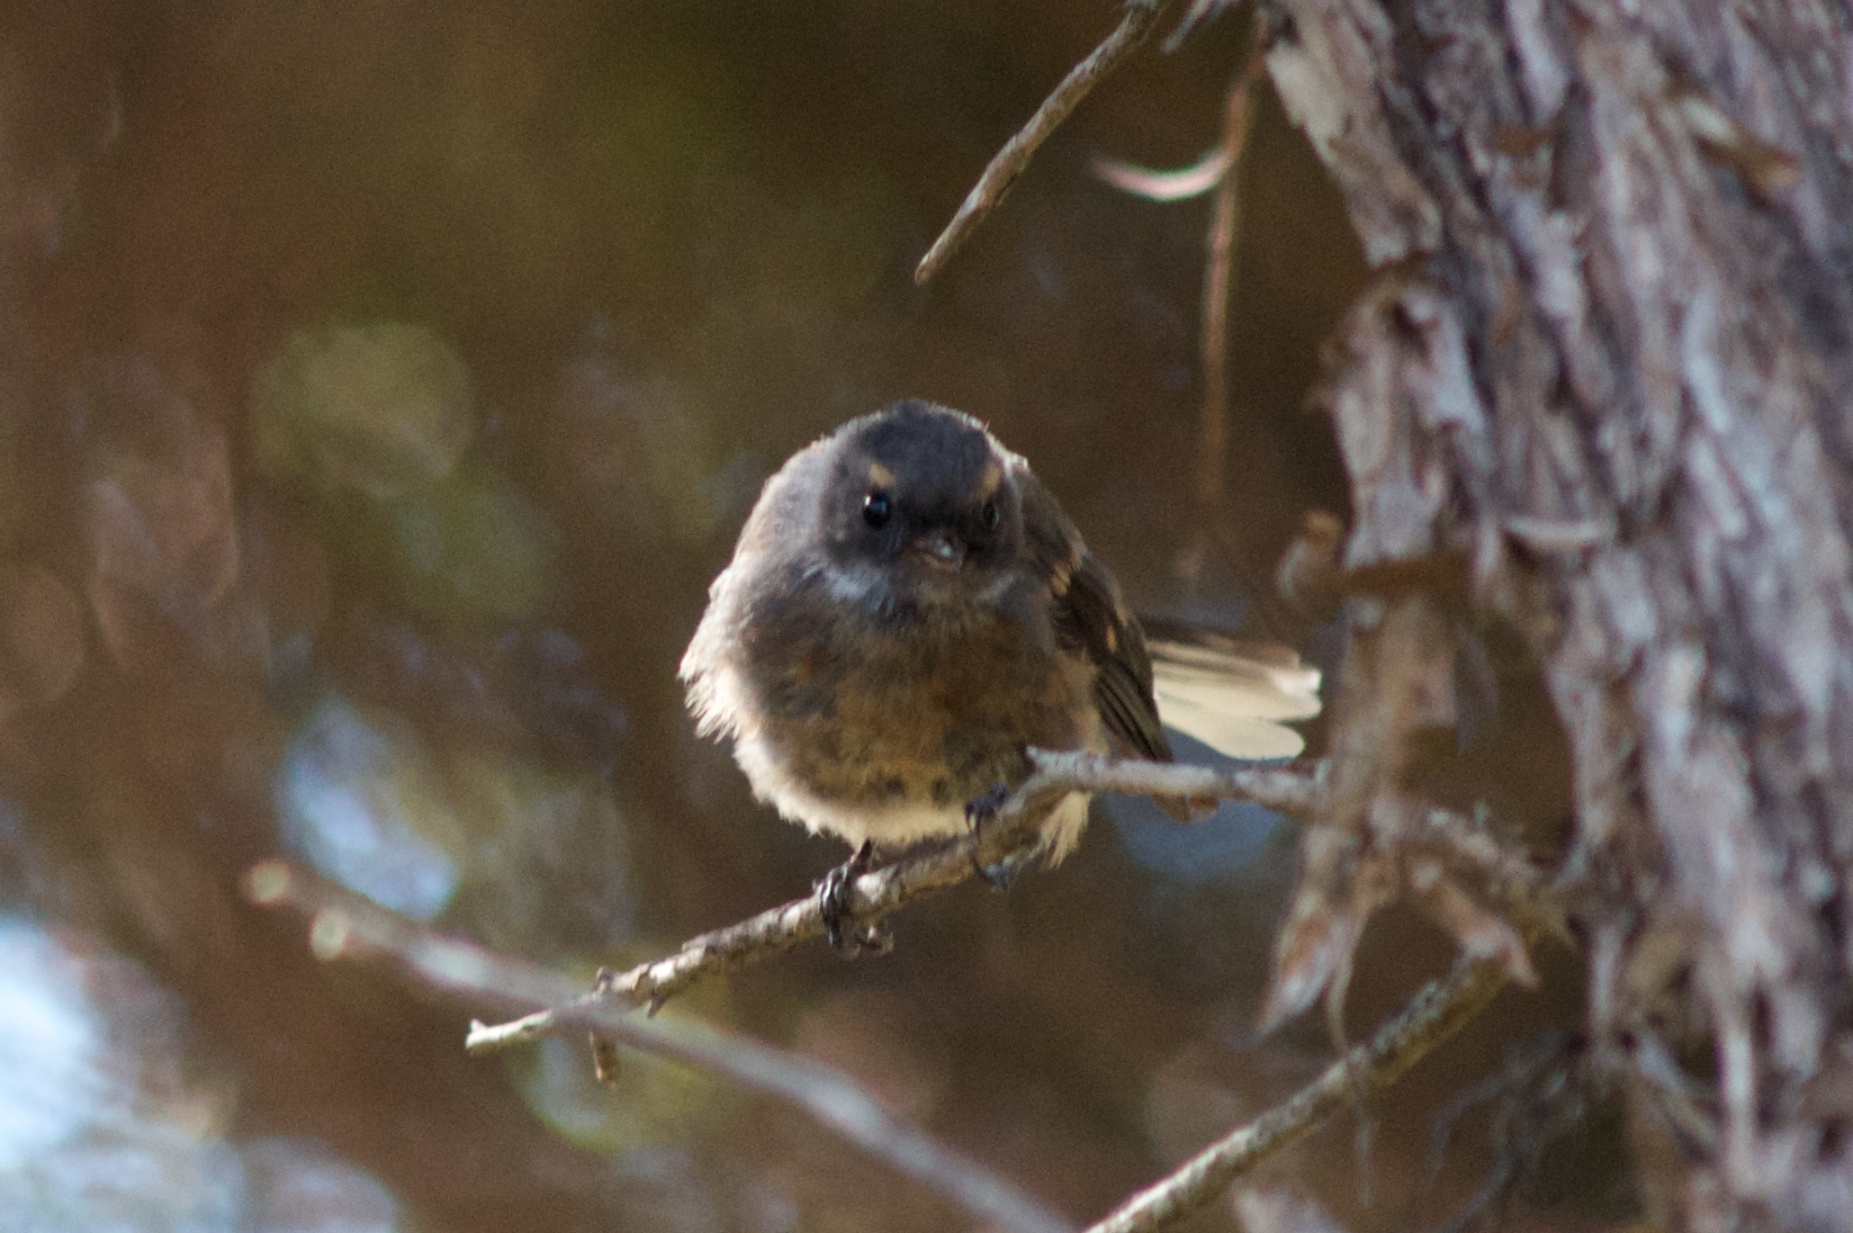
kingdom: Animalia
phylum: Chordata
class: Aves
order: Passeriformes
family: Rhipiduridae
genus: Rhipidura
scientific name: Rhipidura fuliginosa
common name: New zealand fantail
